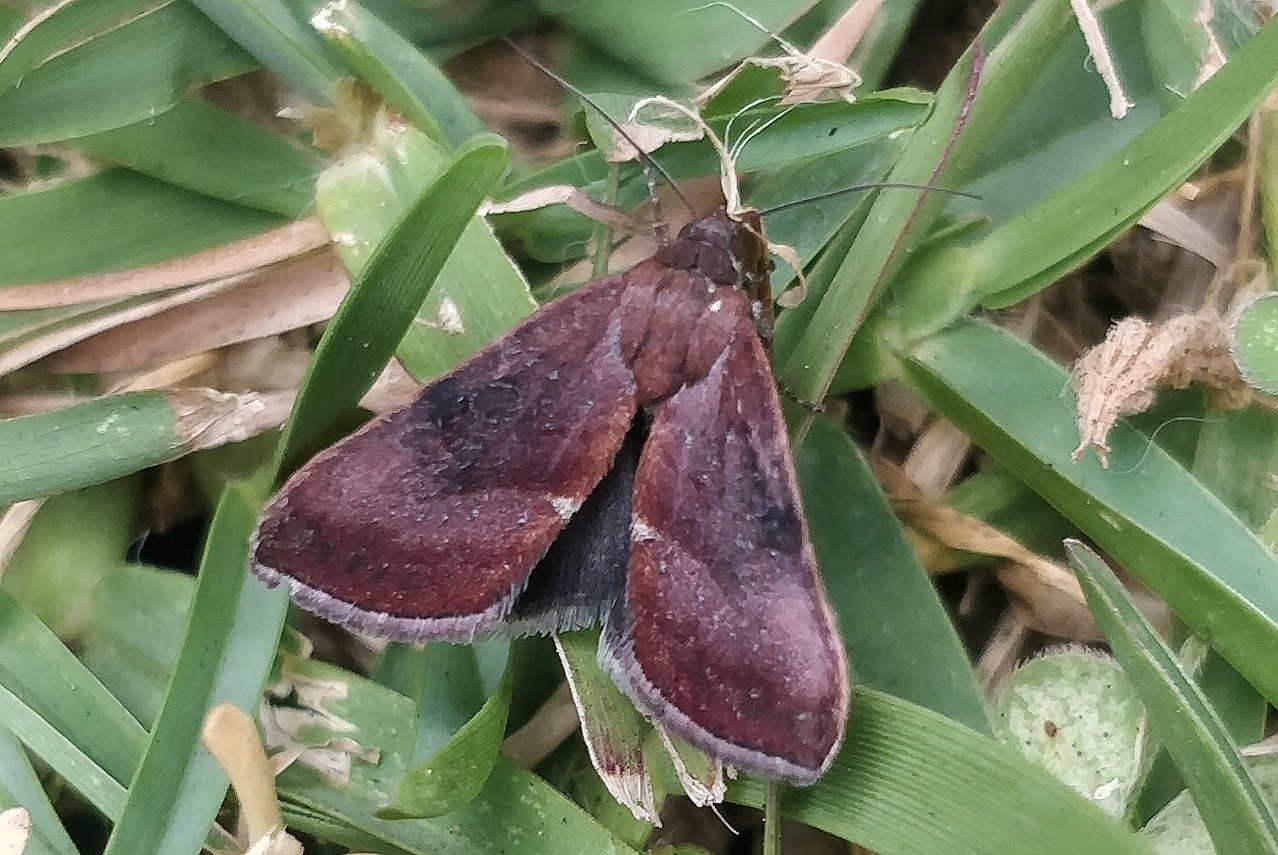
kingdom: Animalia
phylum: Arthropoda
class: Insecta
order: Lepidoptera
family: Noctuidae
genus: Galgula
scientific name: Galgula partita
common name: Wedgeling
